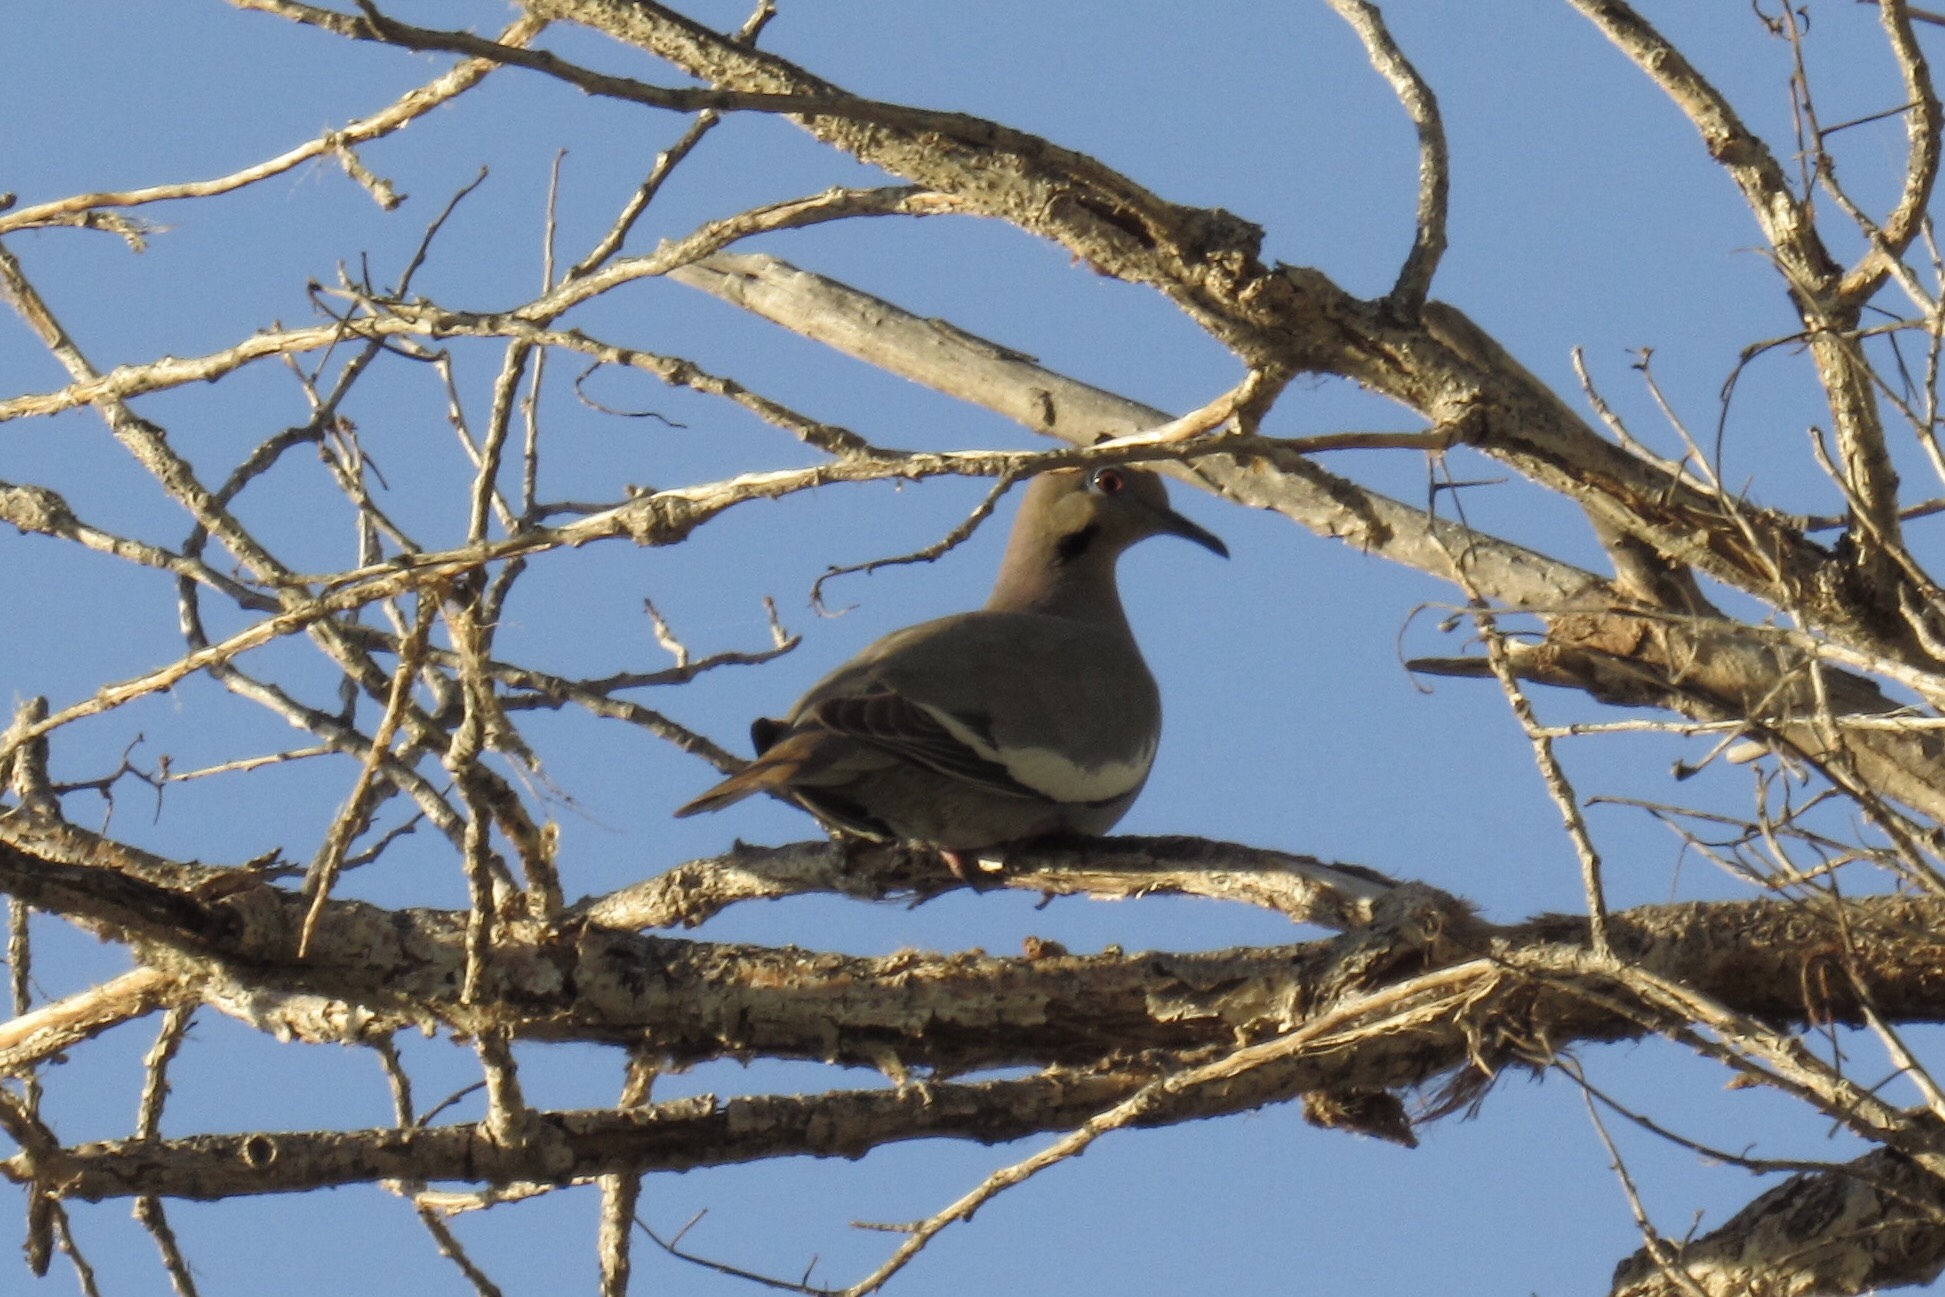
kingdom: Animalia
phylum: Chordata
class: Aves
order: Columbiformes
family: Columbidae
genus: Zenaida
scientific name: Zenaida asiatica
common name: White-winged dove
